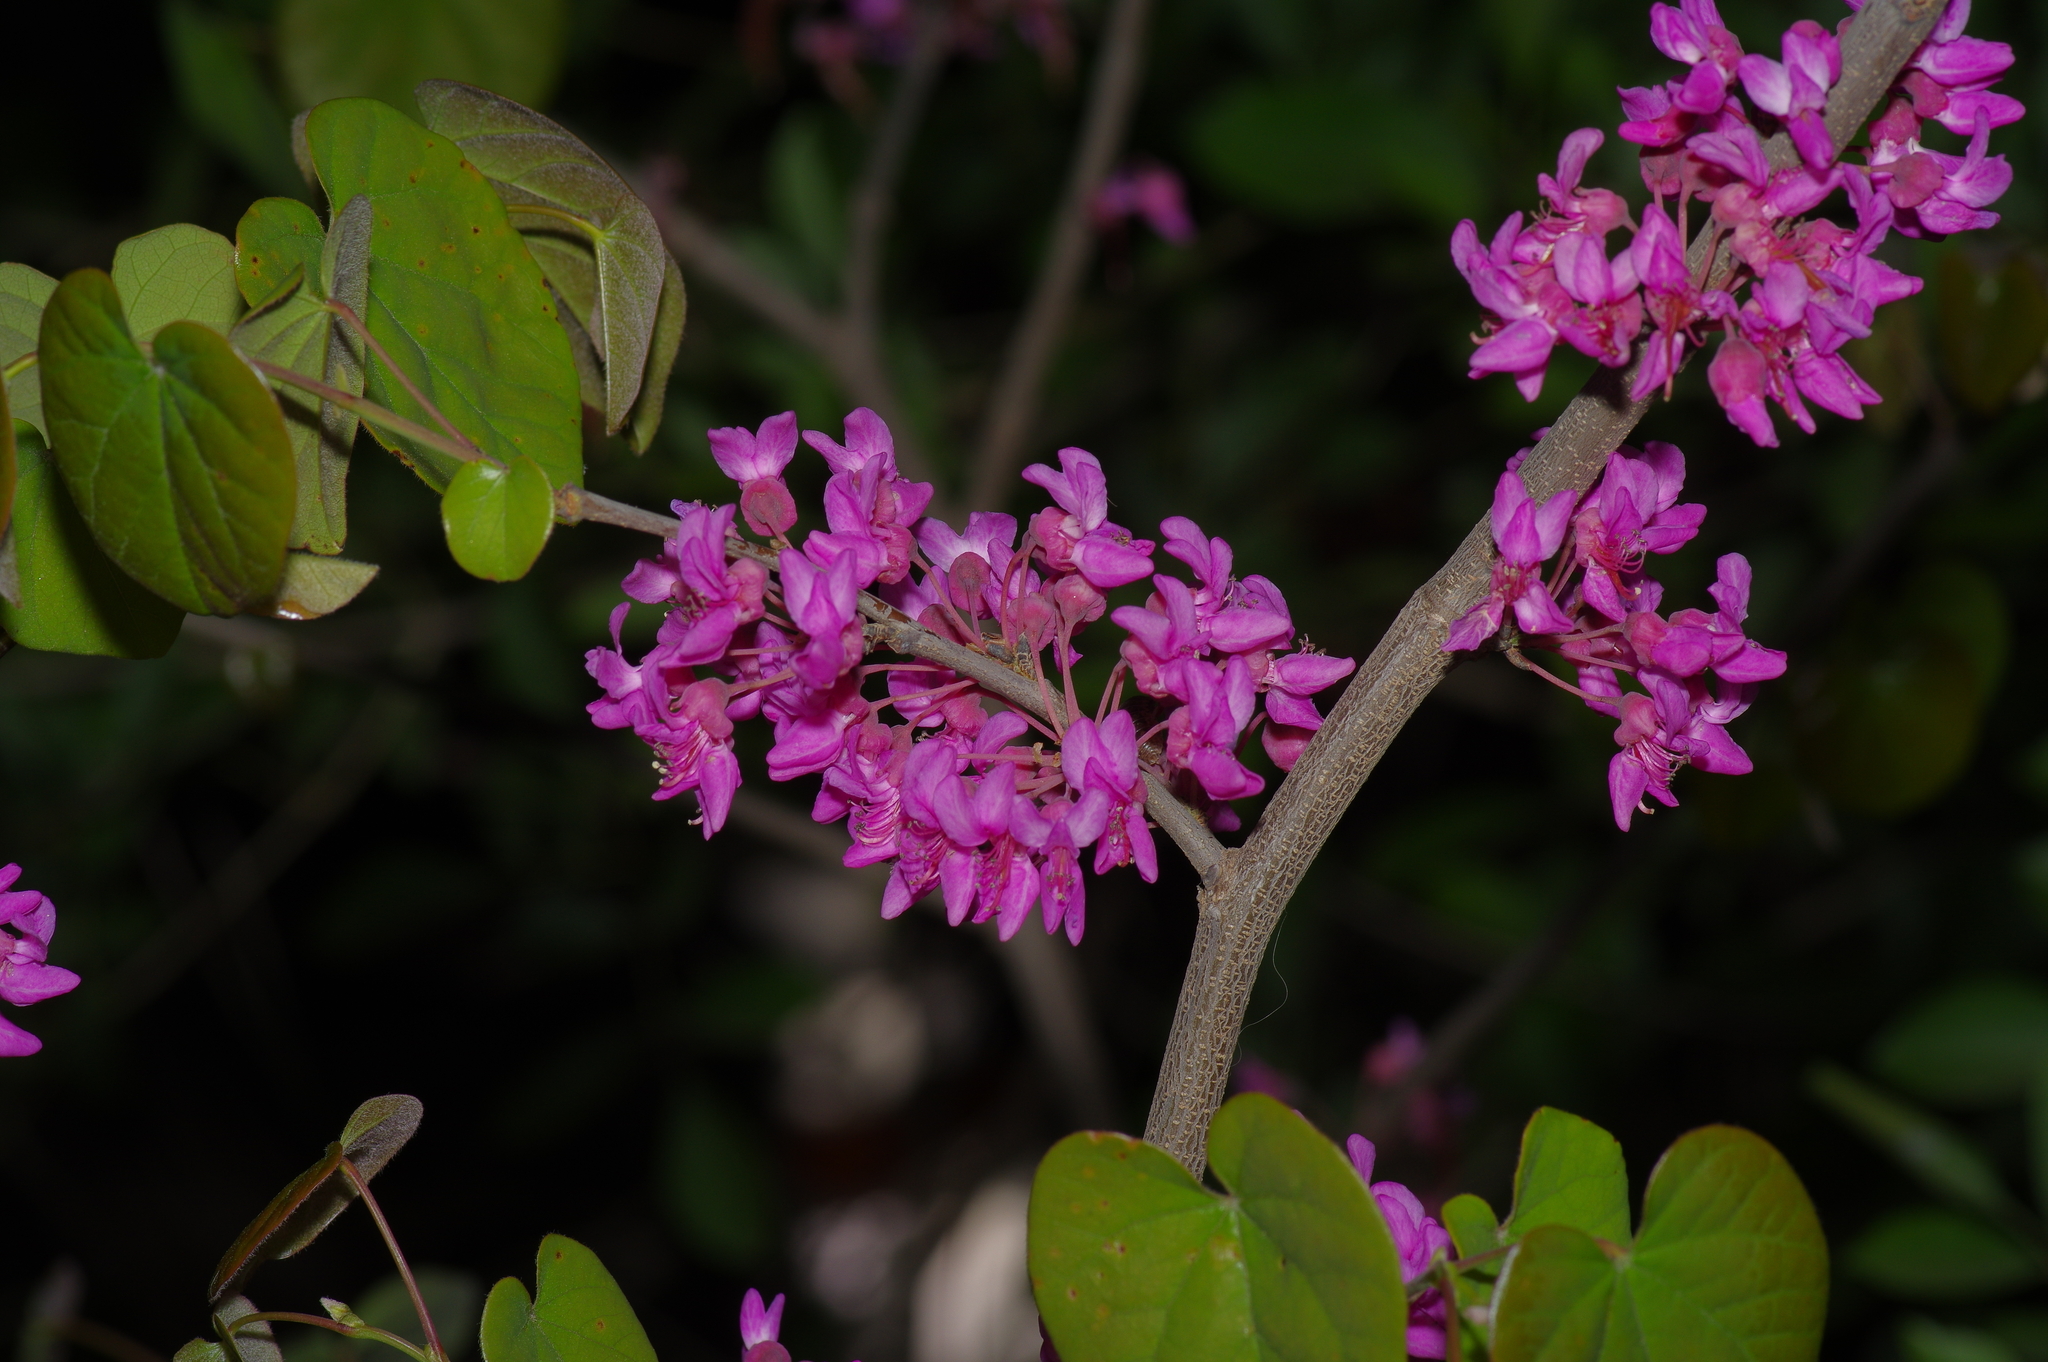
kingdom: Plantae
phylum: Tracheophyta
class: Magnoliopsida
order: Fabales
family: Fabaceae
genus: Cercis
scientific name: Cercis canadensis
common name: Eastern redbud
